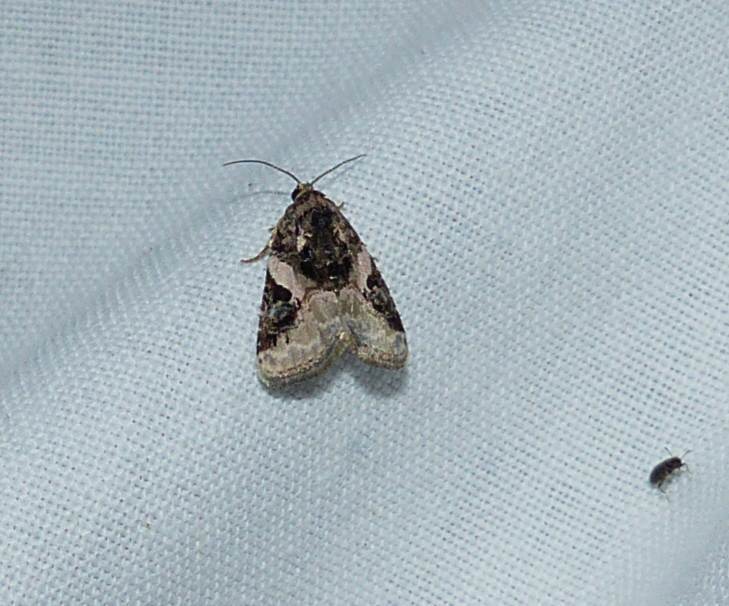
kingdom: Animalia
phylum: Arthropoda
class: Insecta
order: Lepidoptera
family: Noctuidae
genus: Pseudeustrotia
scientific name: Pseudeustrotia carneola
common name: Pink-barred lithacodia moth
